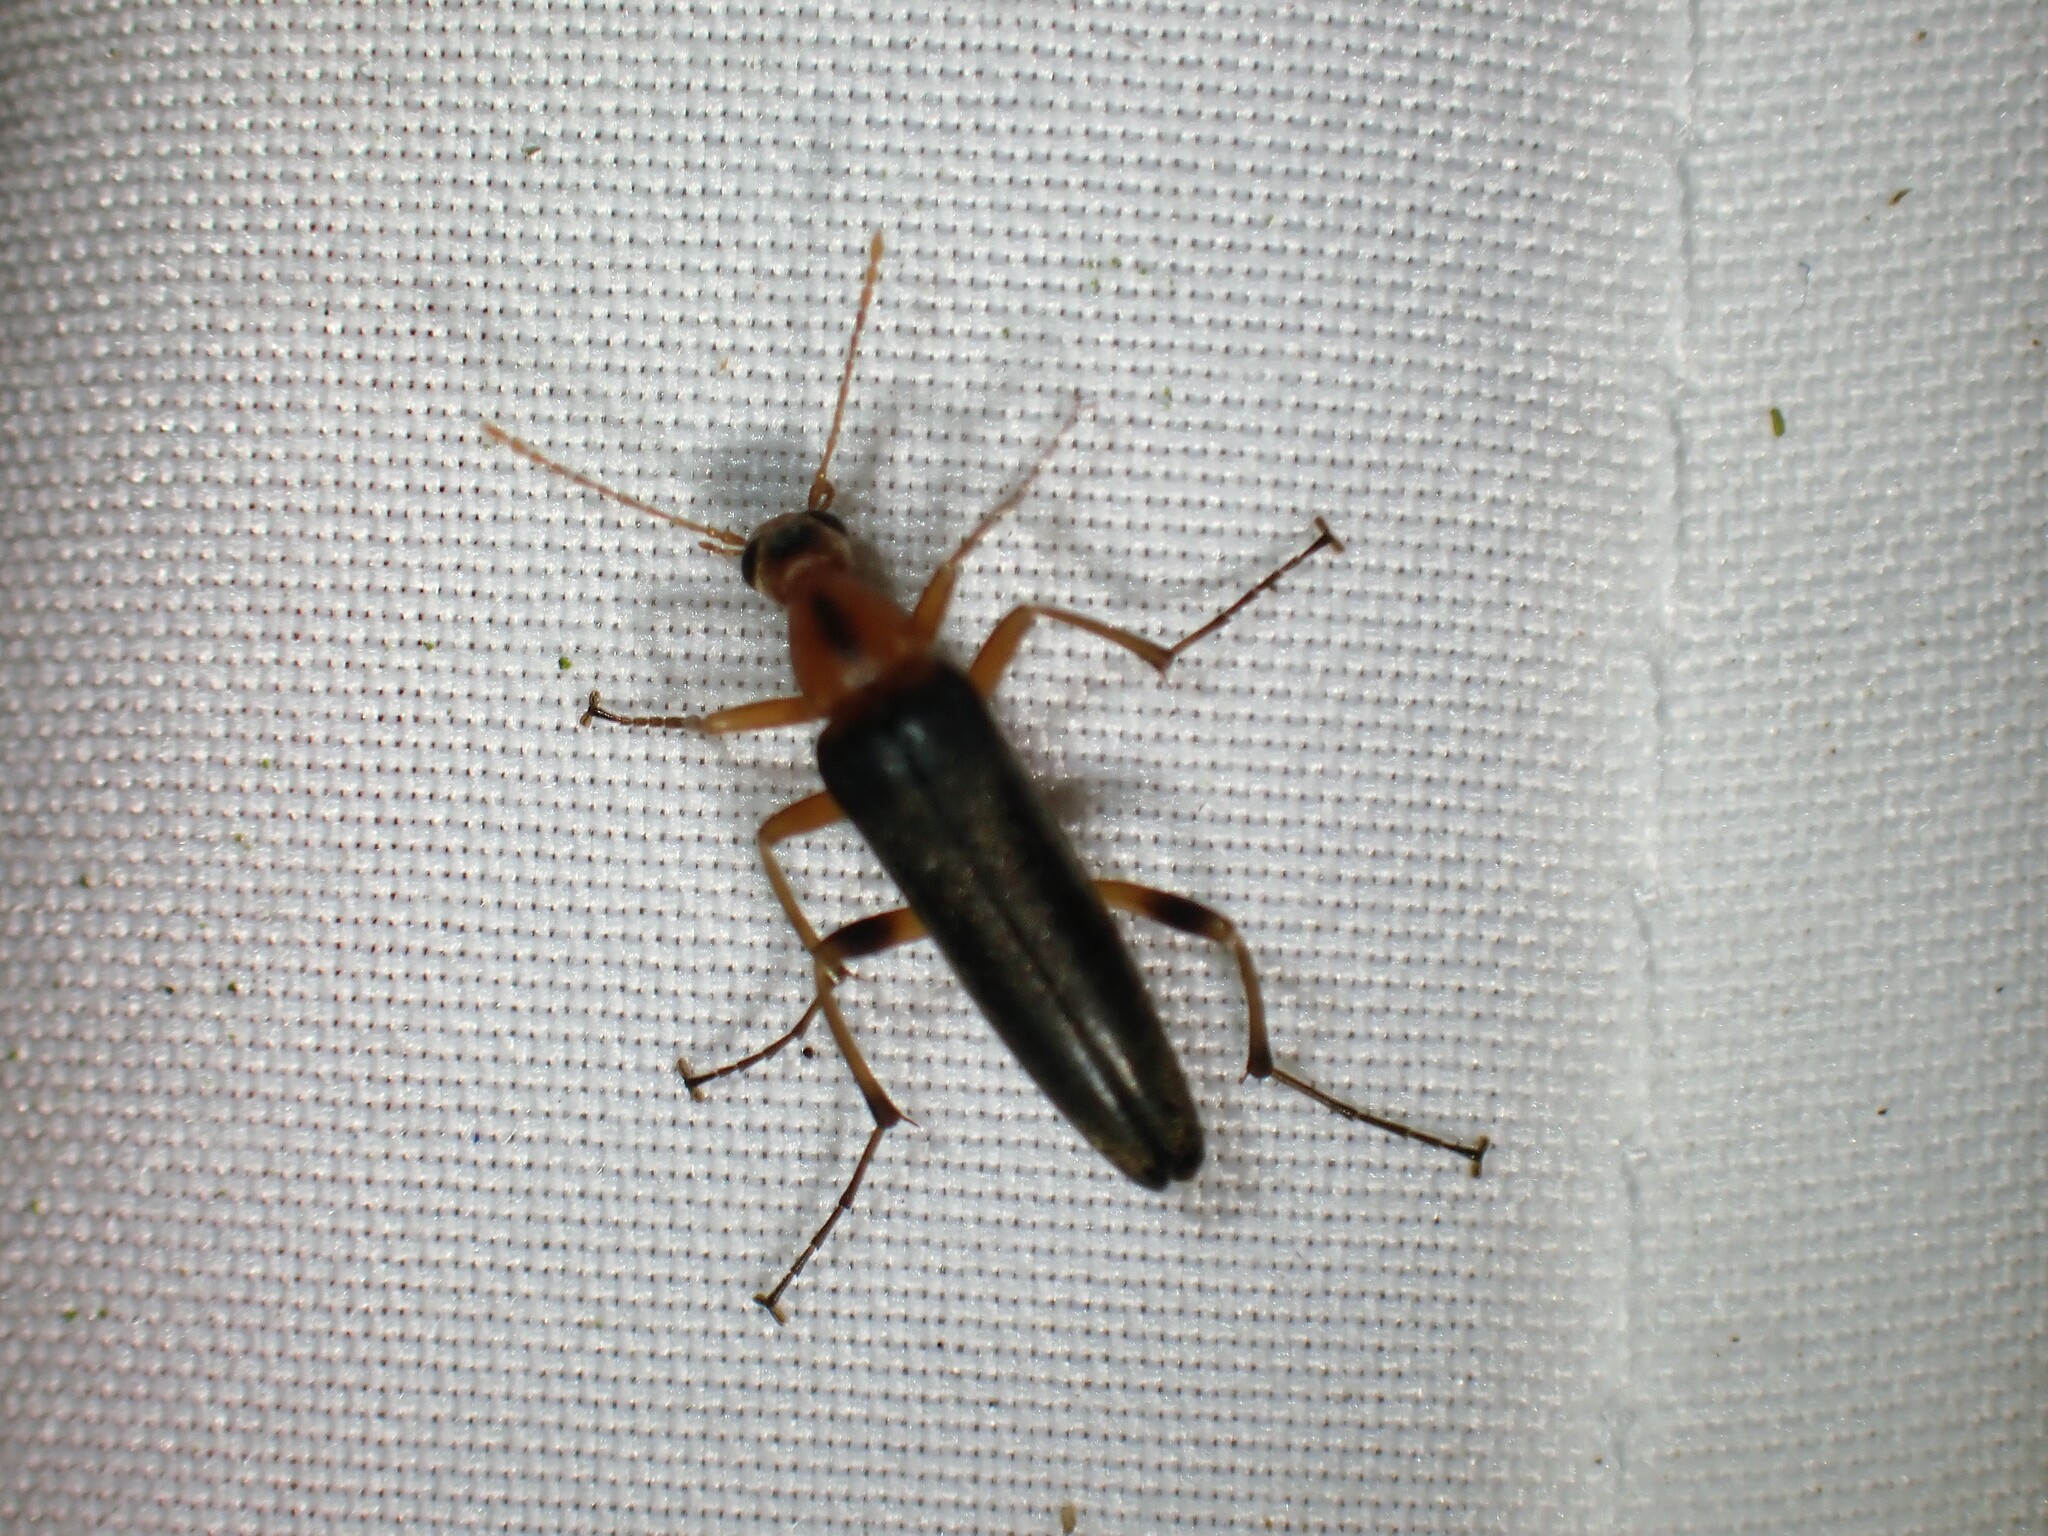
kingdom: Animalia
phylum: Arthropoda
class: Insecta
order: Coleoptera
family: Stenotrachelidae
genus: Cephaloon
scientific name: Cephaloon lepturides
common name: False leptura beetle
